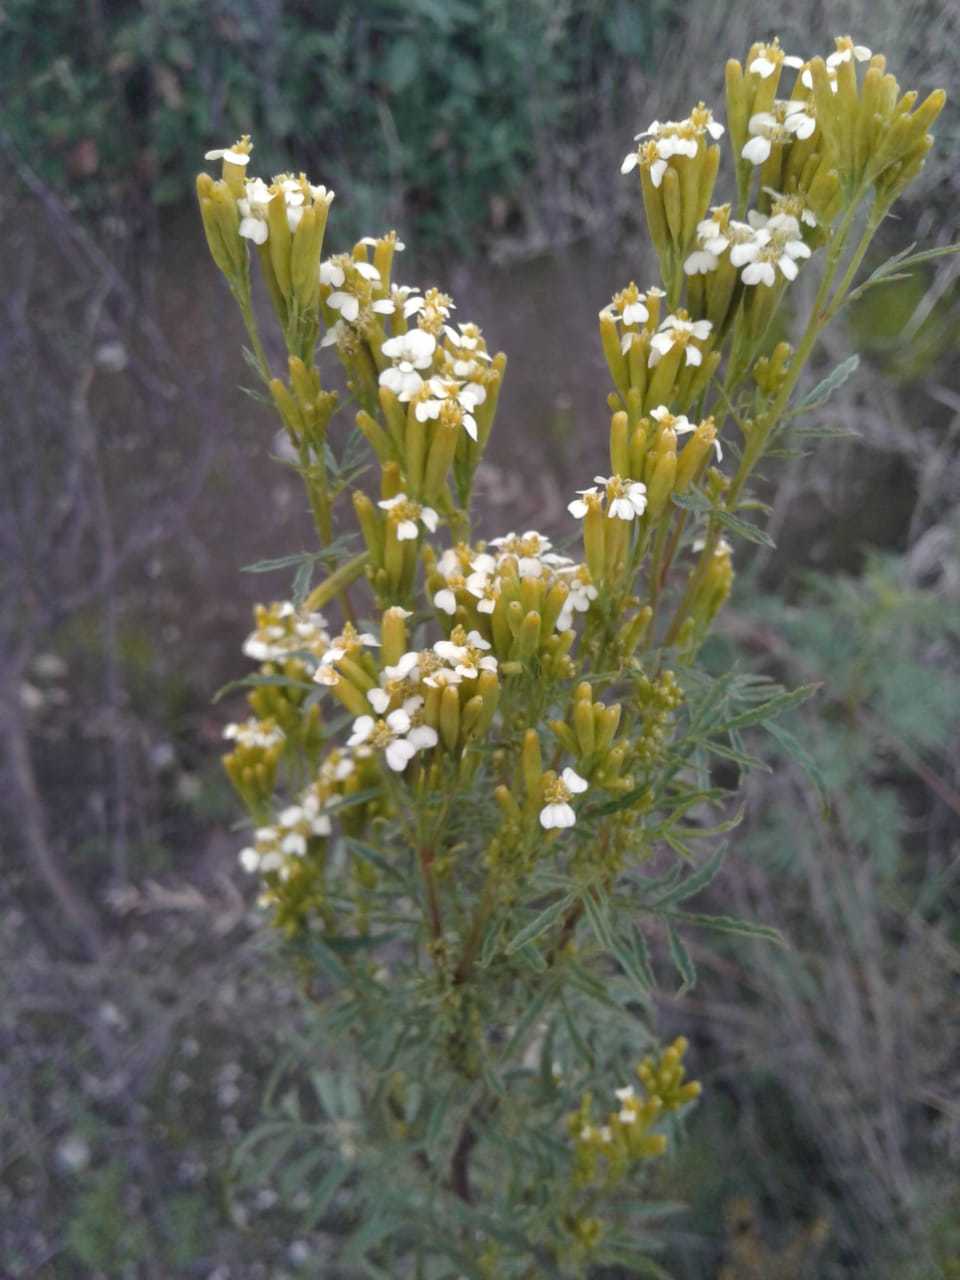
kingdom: Plantae
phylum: Tracheophyta
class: Magnoliopsida
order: Asterales
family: Asteraceae
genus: Tagetes
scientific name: Tagetes minuta
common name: Muster john henry
